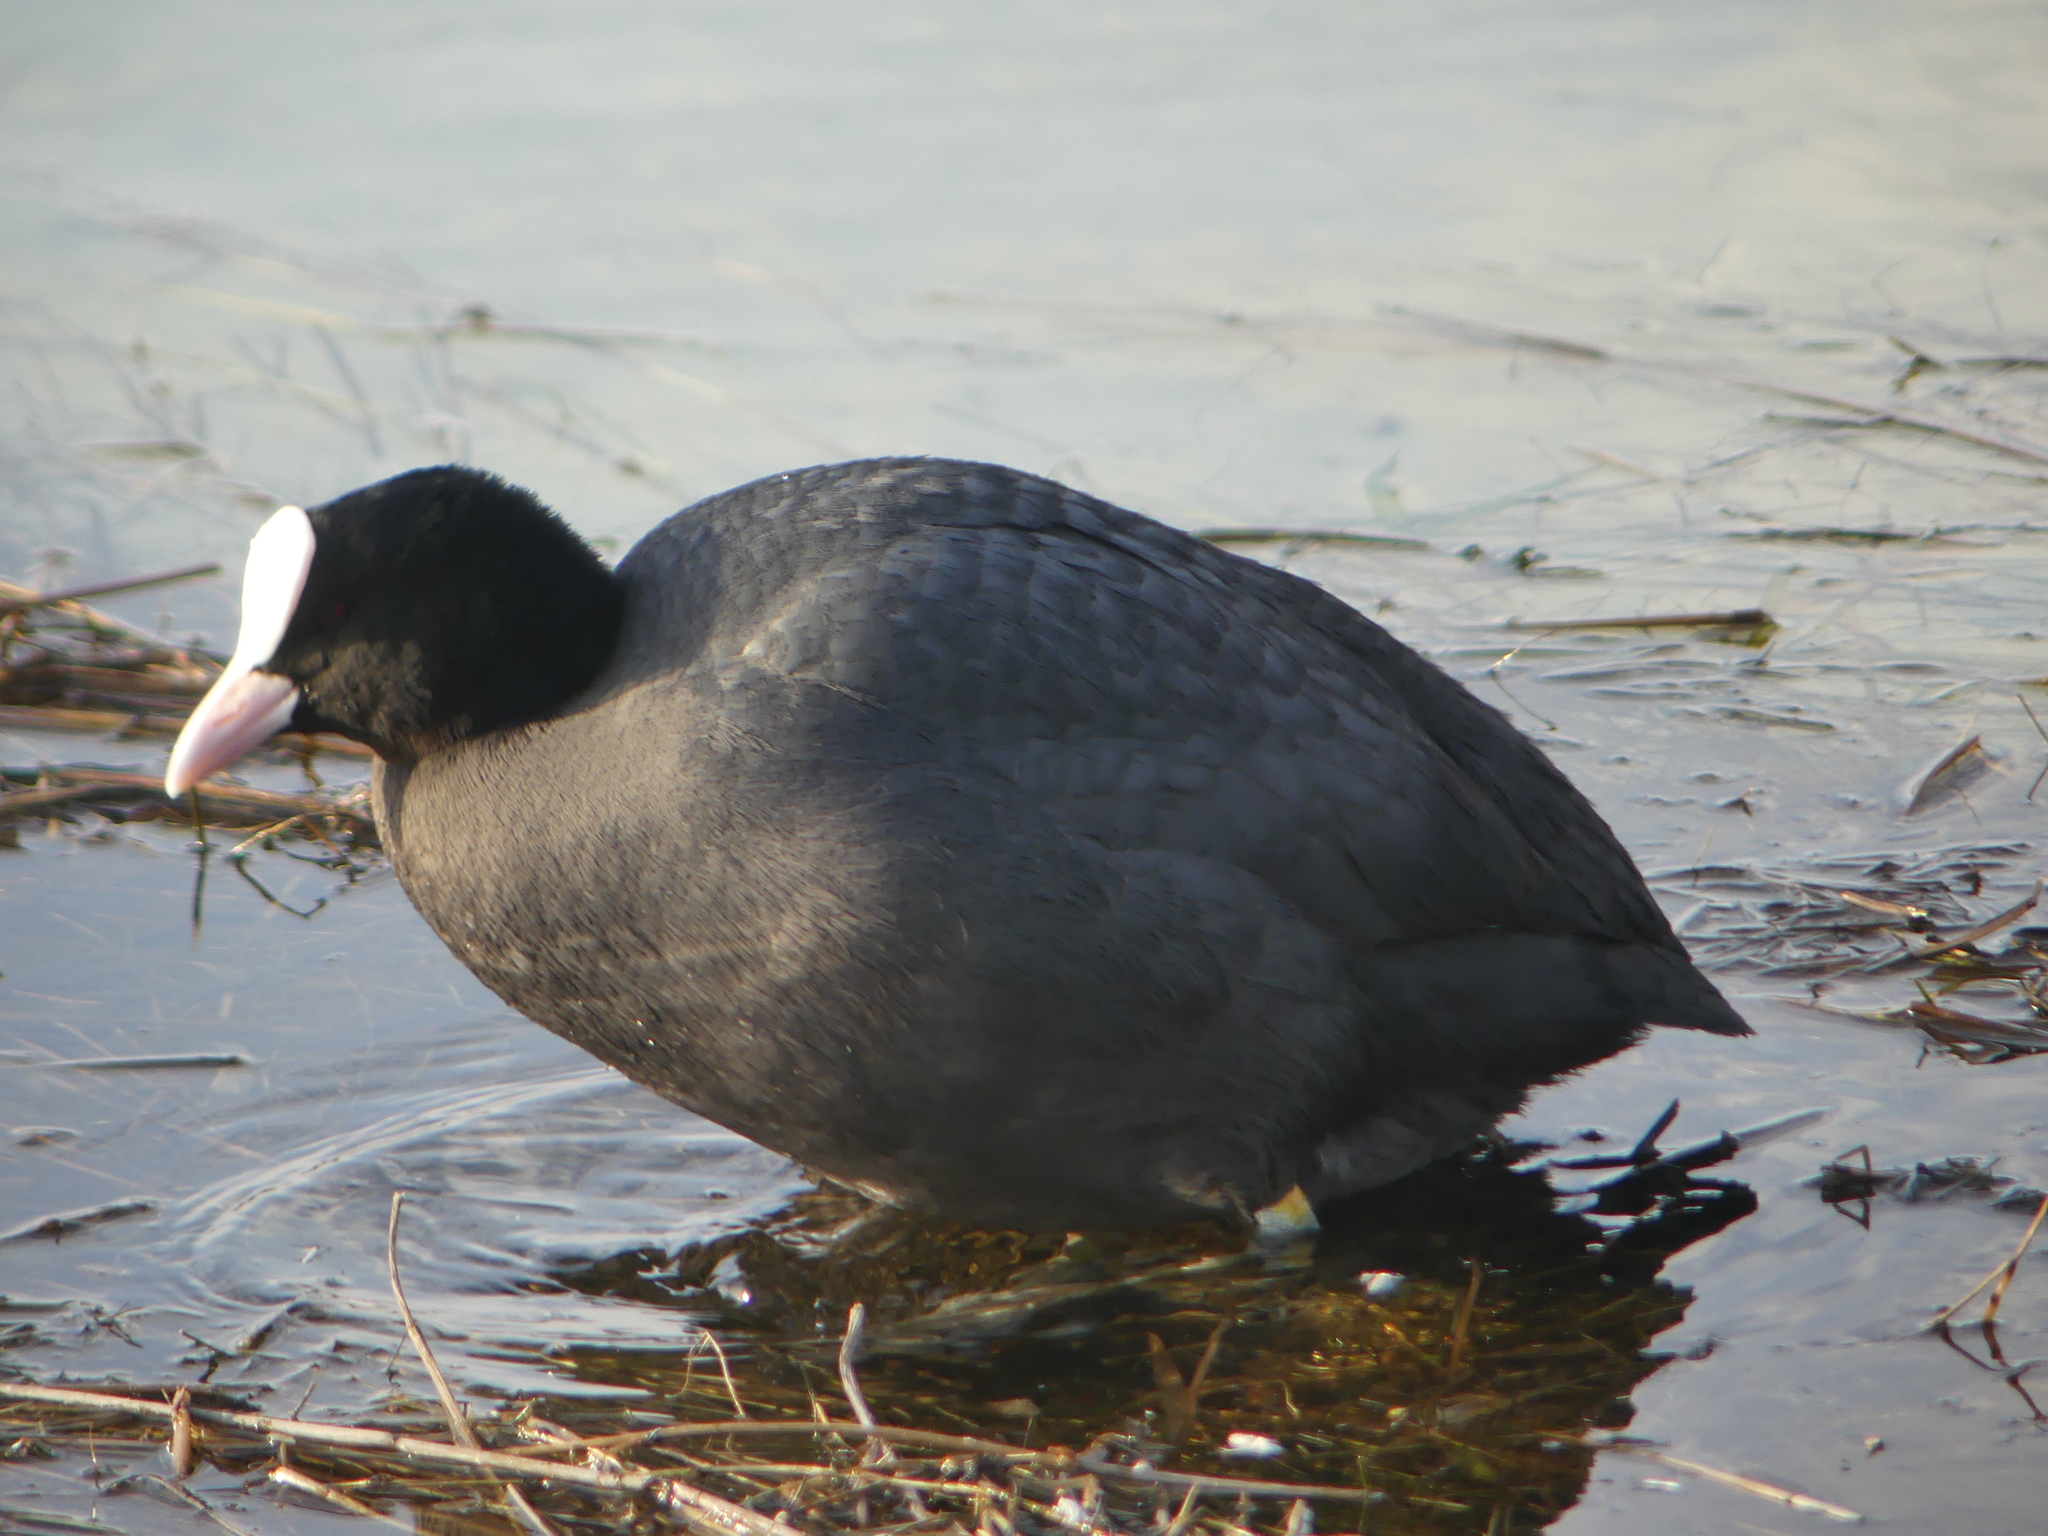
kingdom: Animalia
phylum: Chordata
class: Aves
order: Gruiformes
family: Rallidae
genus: Fulica
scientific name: Fulica atra
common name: Eurasian coot
